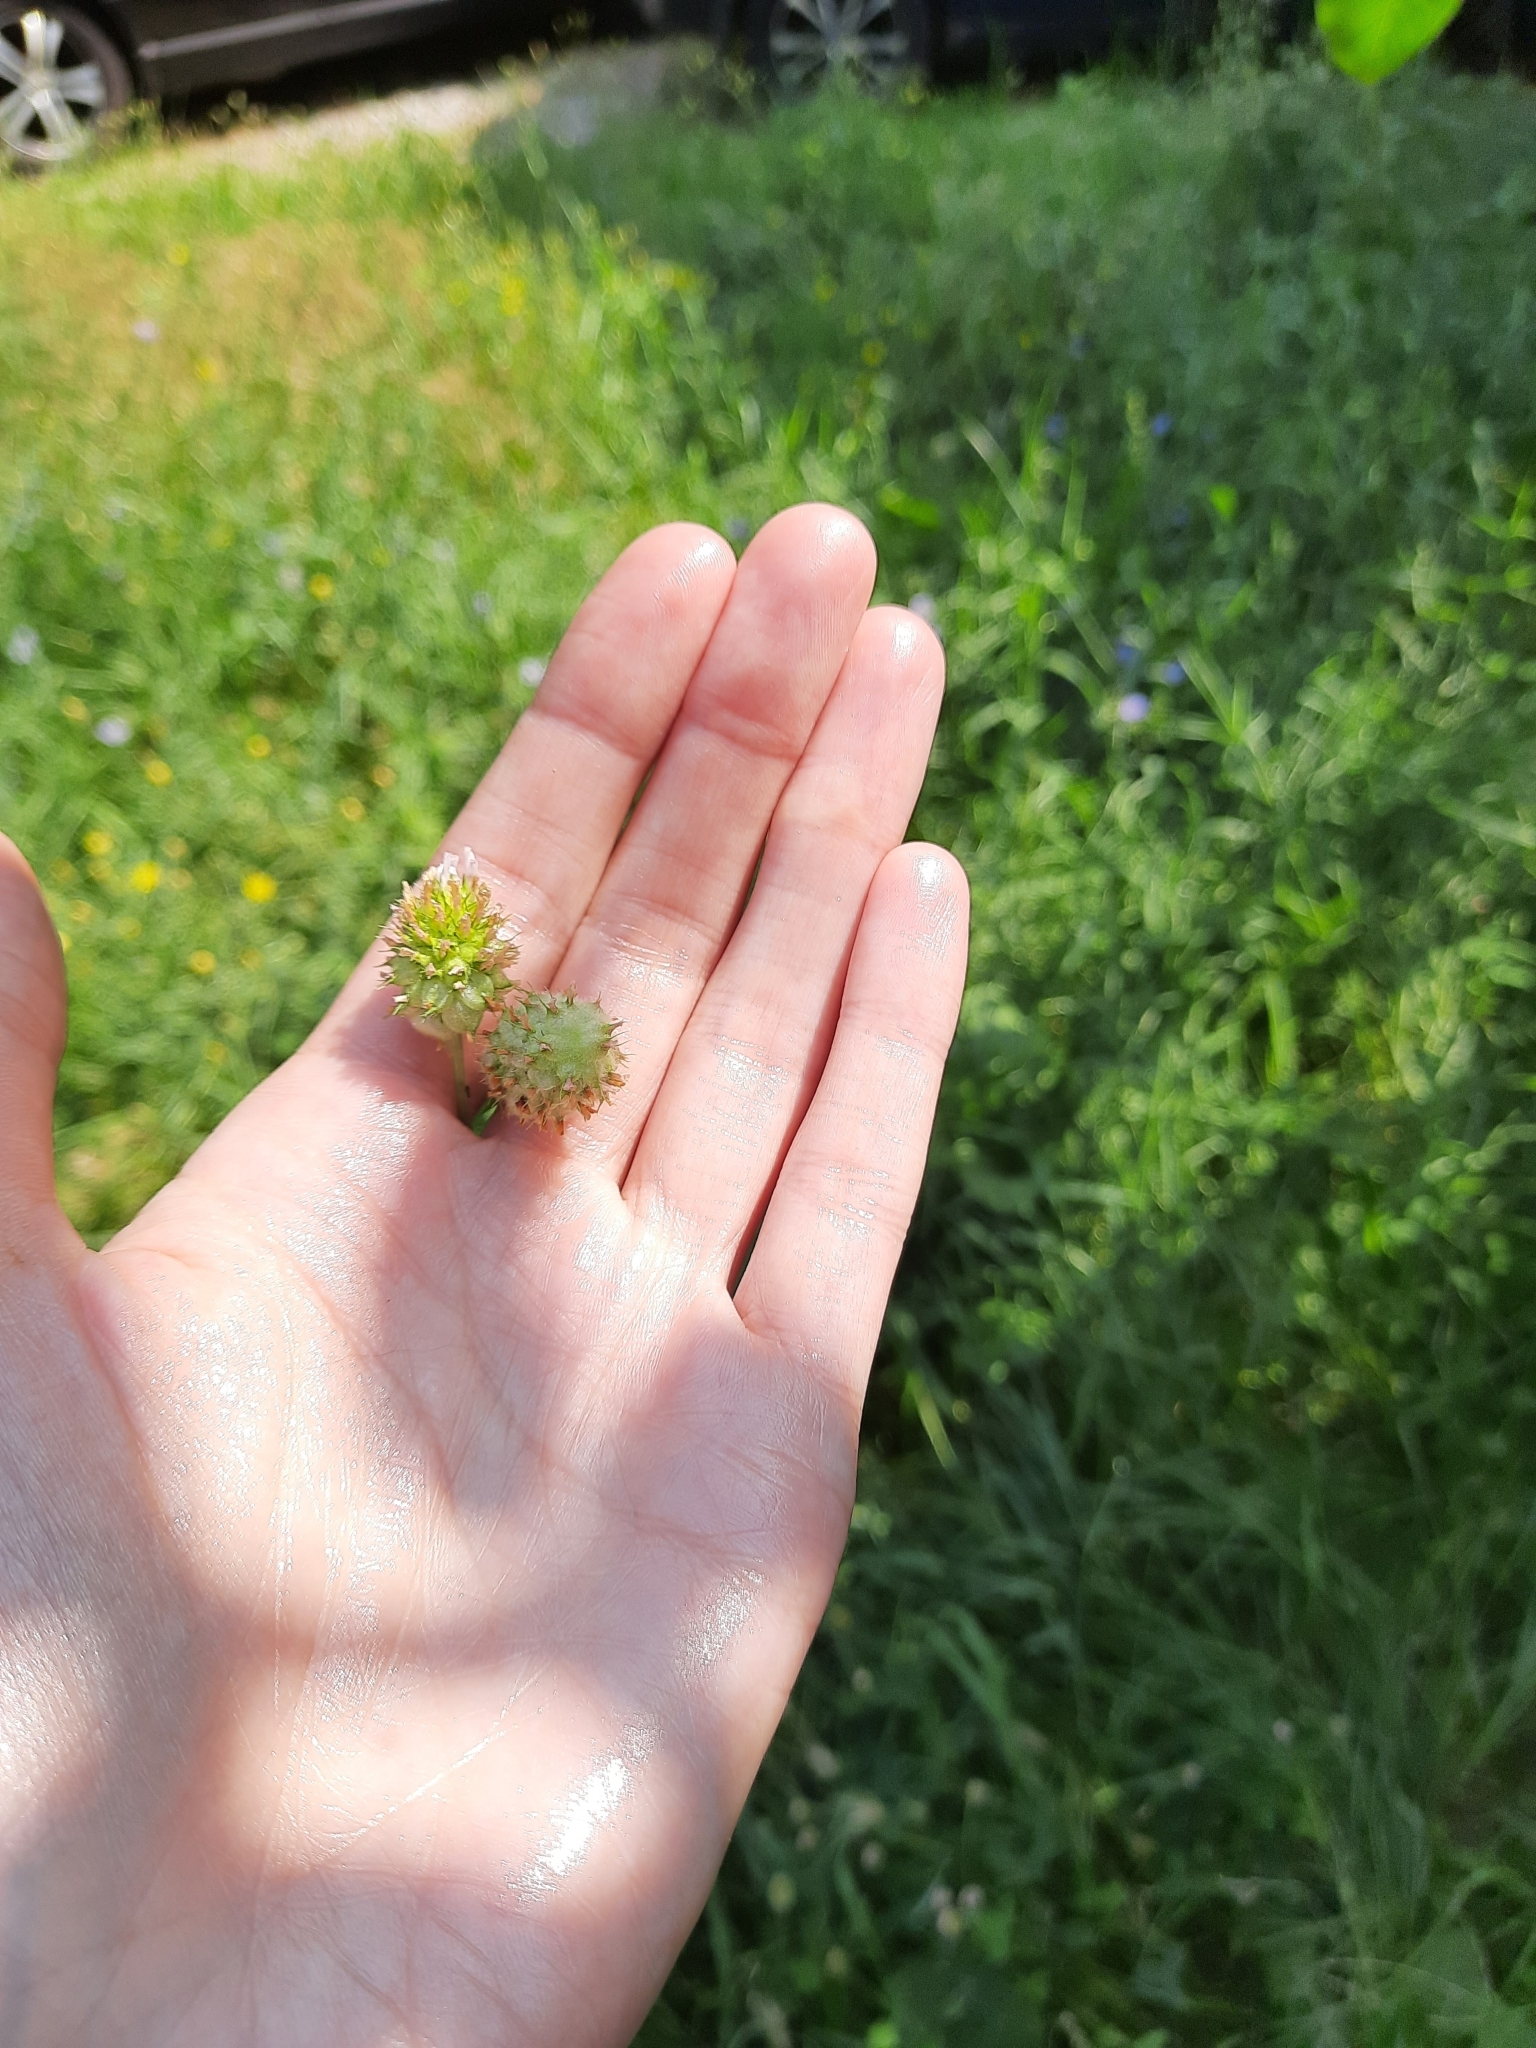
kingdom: Plantae
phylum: Tracheophyta
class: Magnoliopsida
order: Fabales
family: Fabaceae
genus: Trifolium
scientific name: Trifolium fragiferum
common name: Strawberry clover
